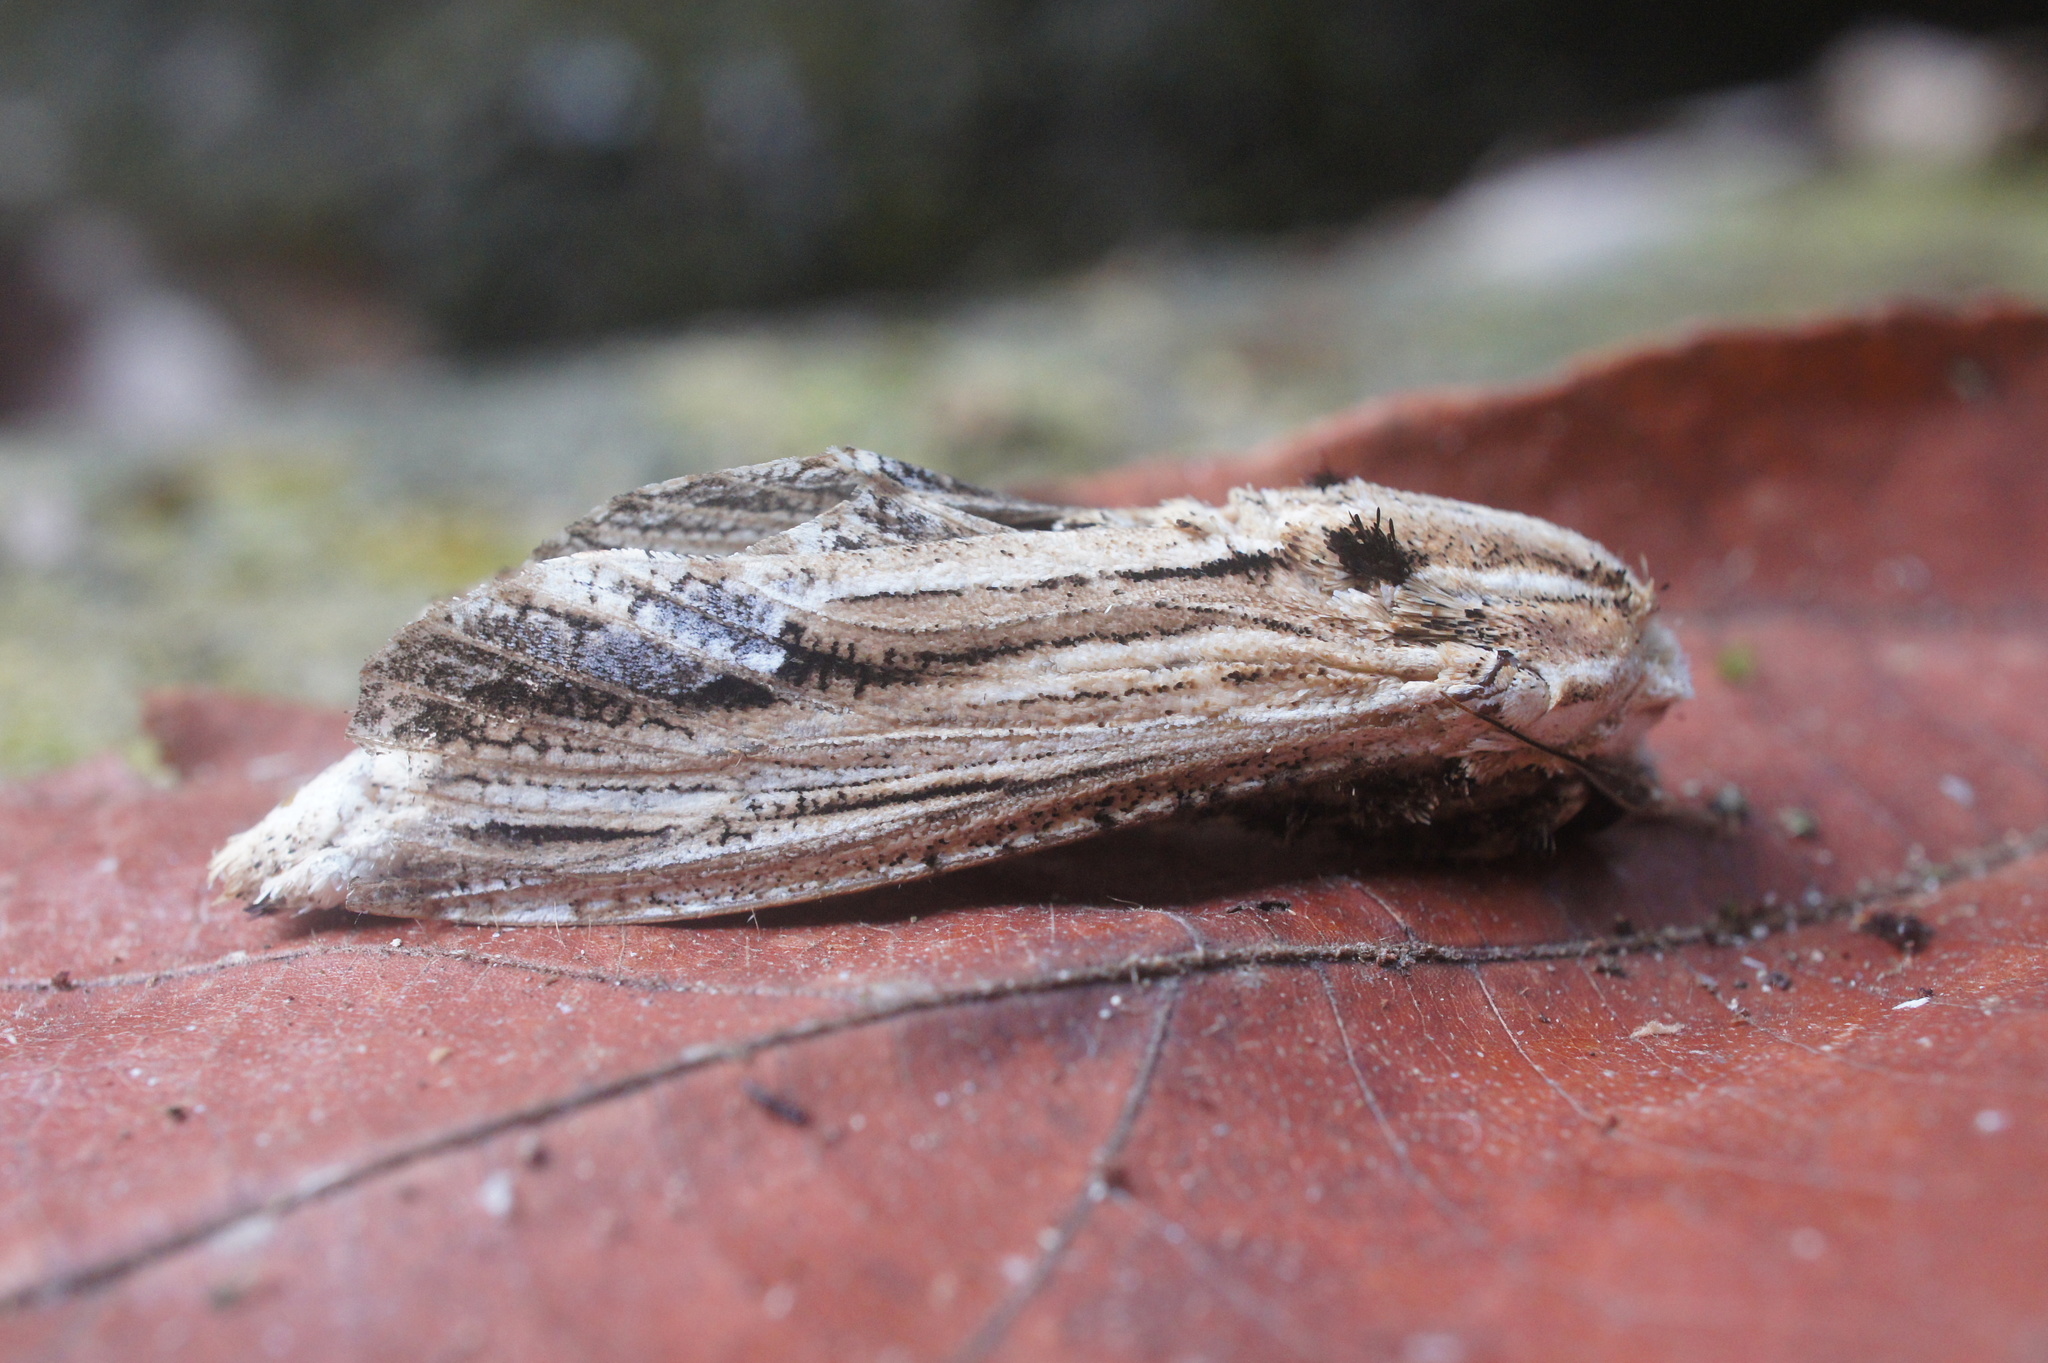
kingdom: Animalia
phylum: Arthropoda
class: Insecta
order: Lepidoptera
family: Cossidae
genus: Duomitus
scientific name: Duomitus ceramicus
